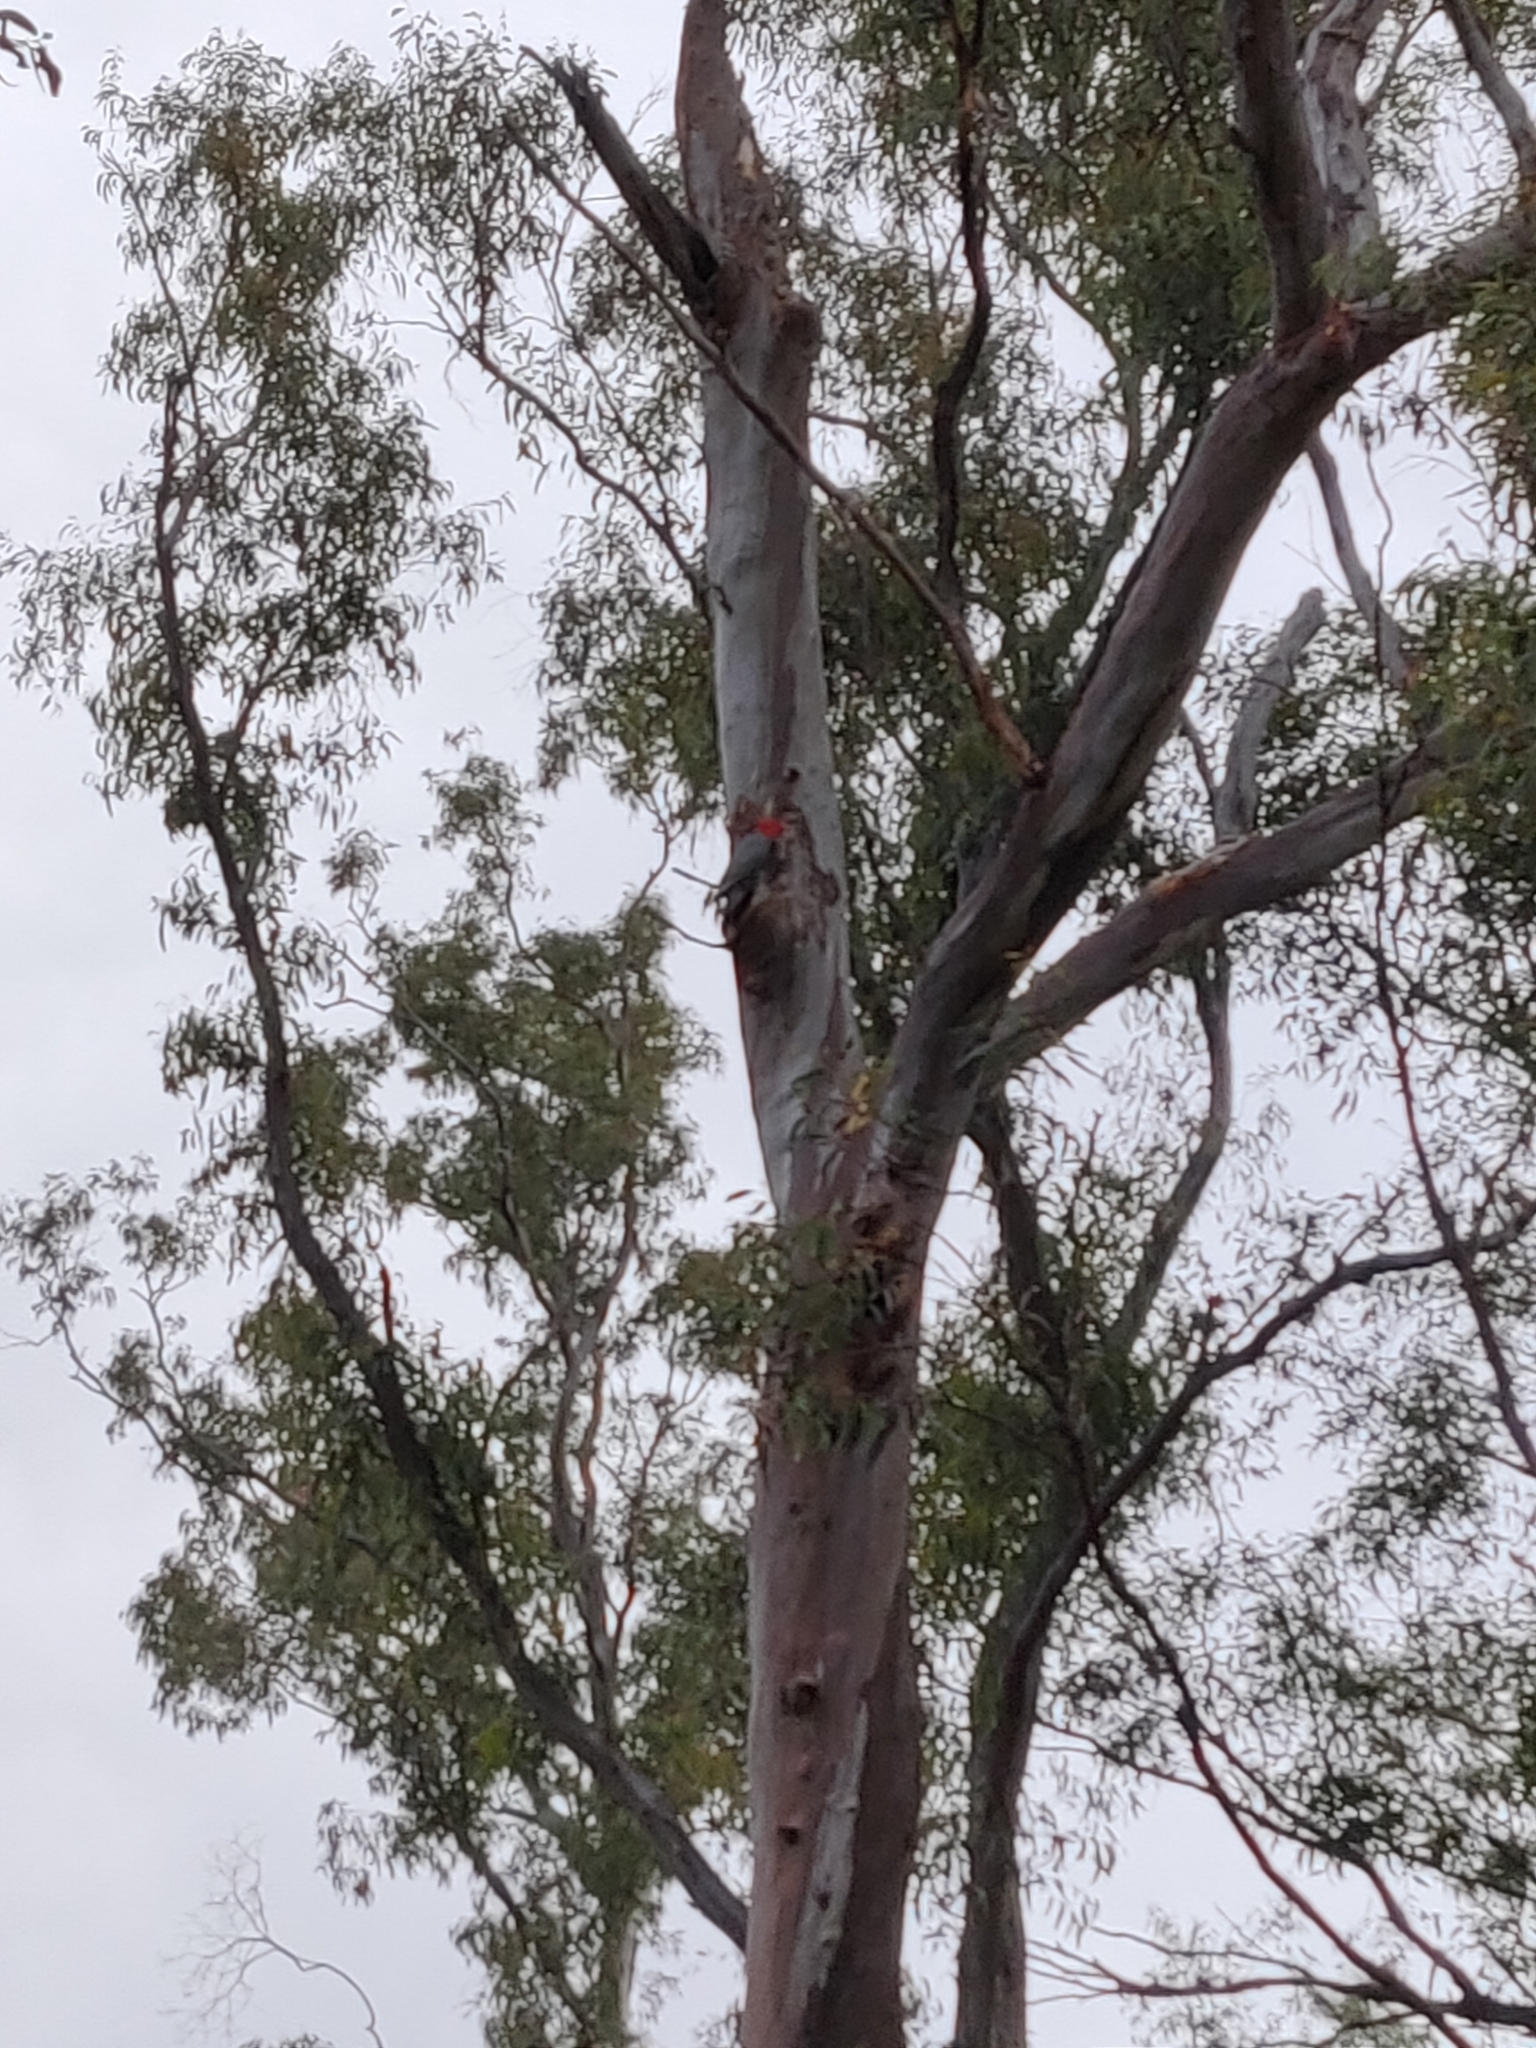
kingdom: Animalia
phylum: Chordata
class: Aves
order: Psittaciformes
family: Psittacidae
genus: Callocephalon
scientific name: Callocephalon fimbriatum
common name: Gang-gang cockatoo
